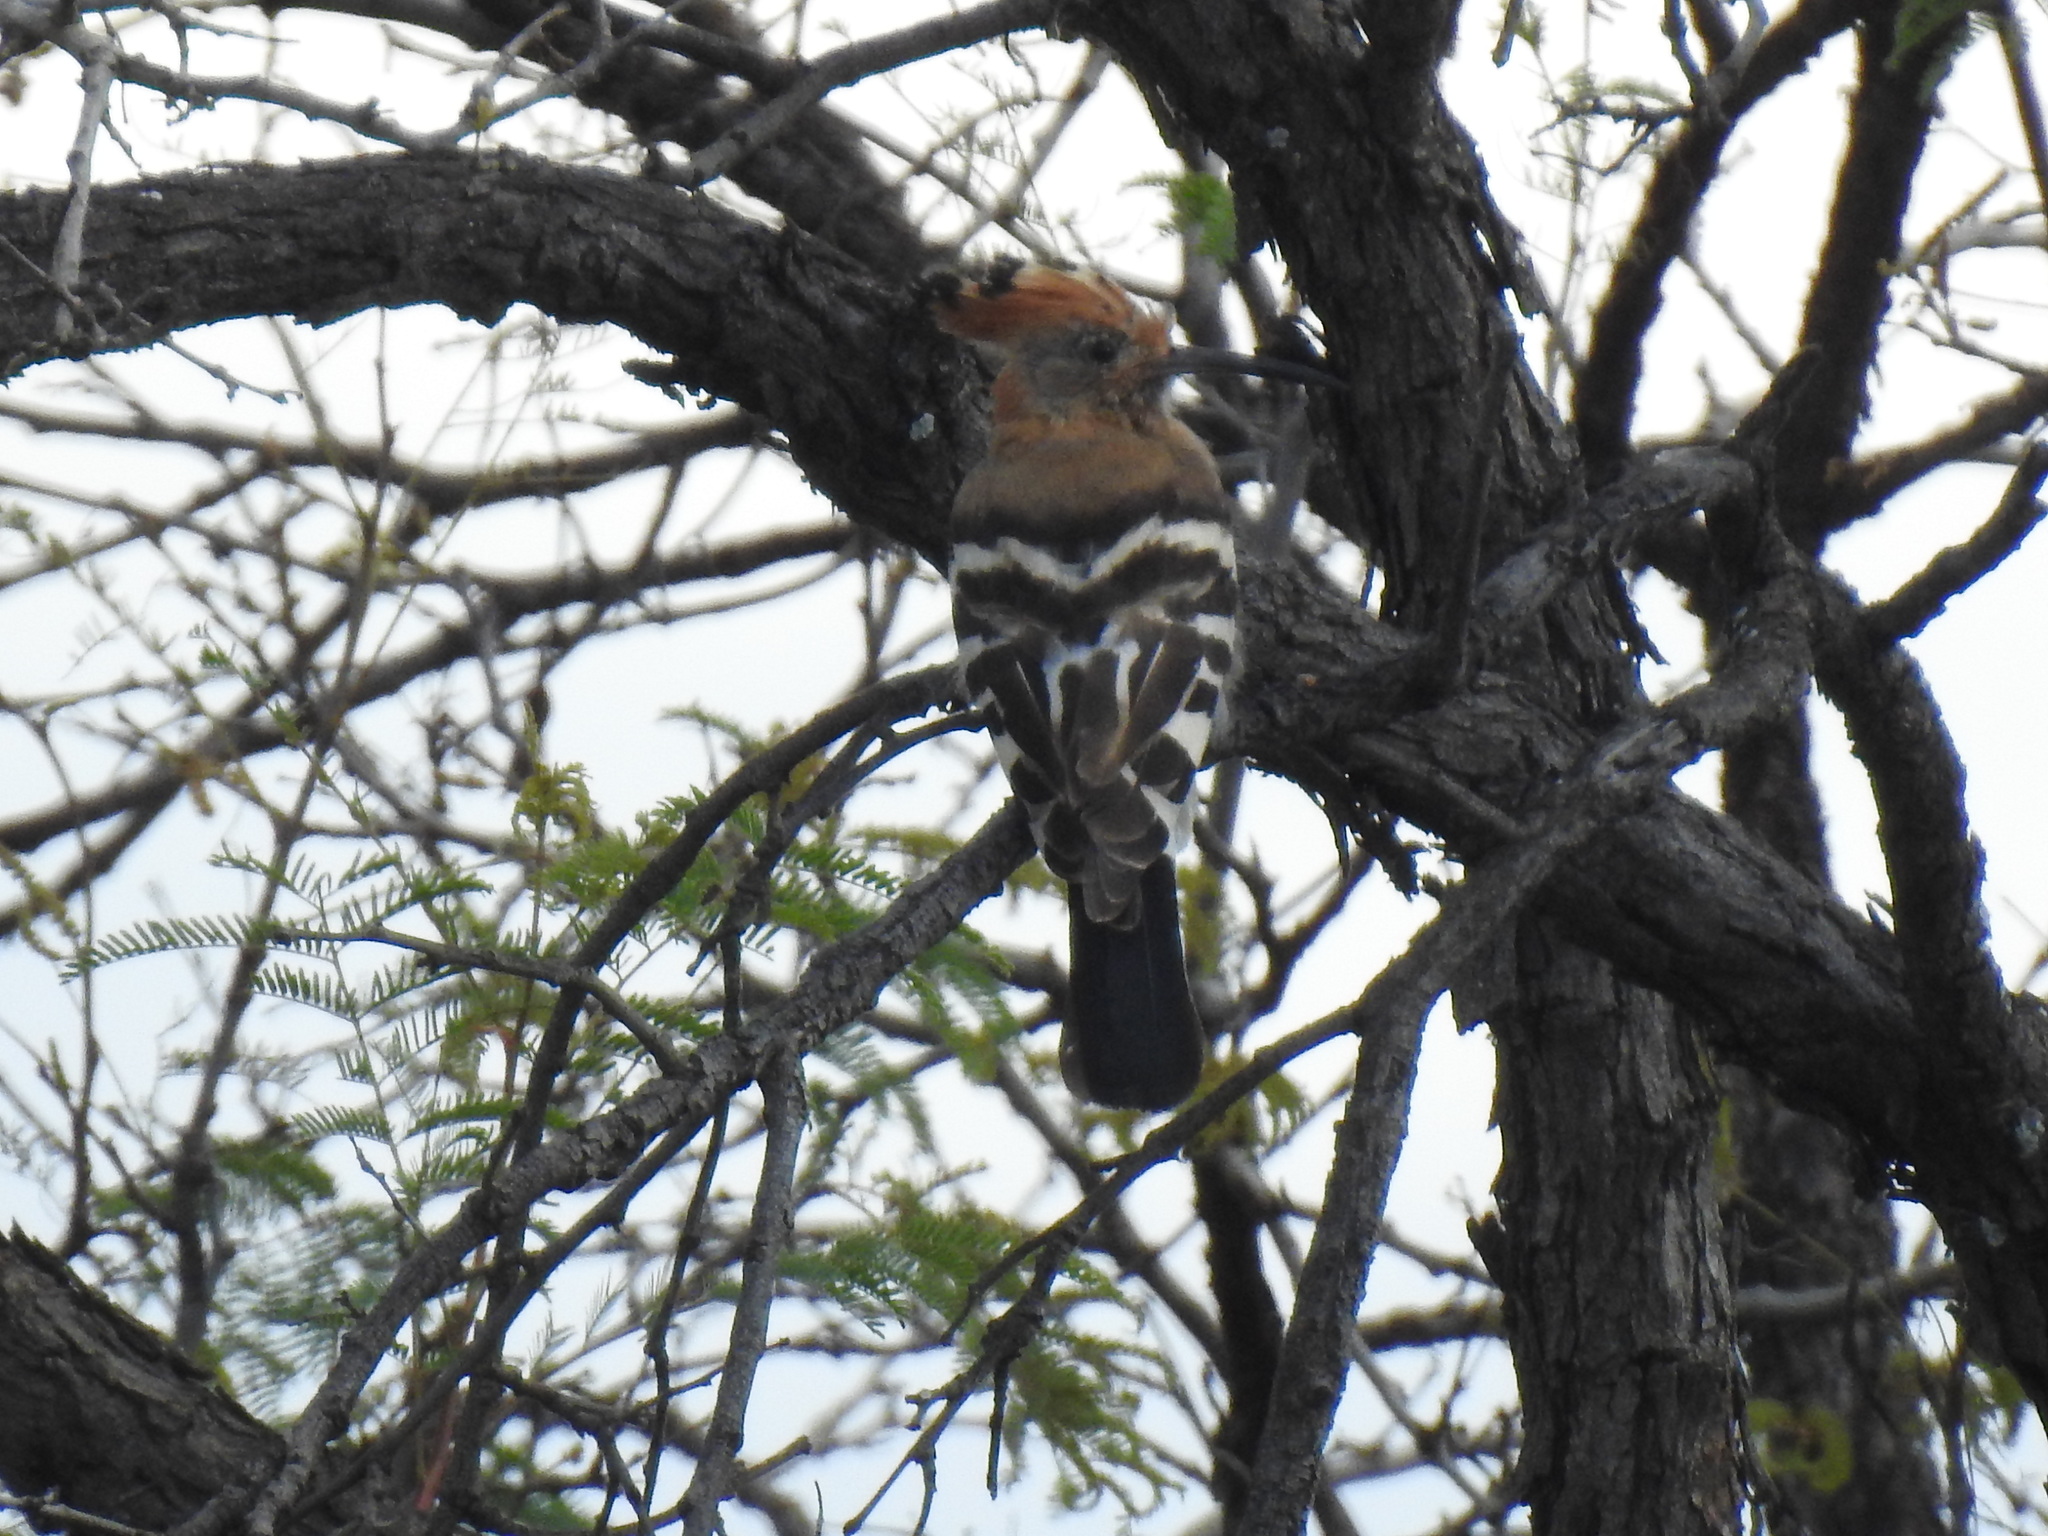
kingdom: Animalia
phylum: Chordata
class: Aves
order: Bucerotiformes
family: Upupidae
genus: Upupa
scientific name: Upupa africana
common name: African hoopoe
